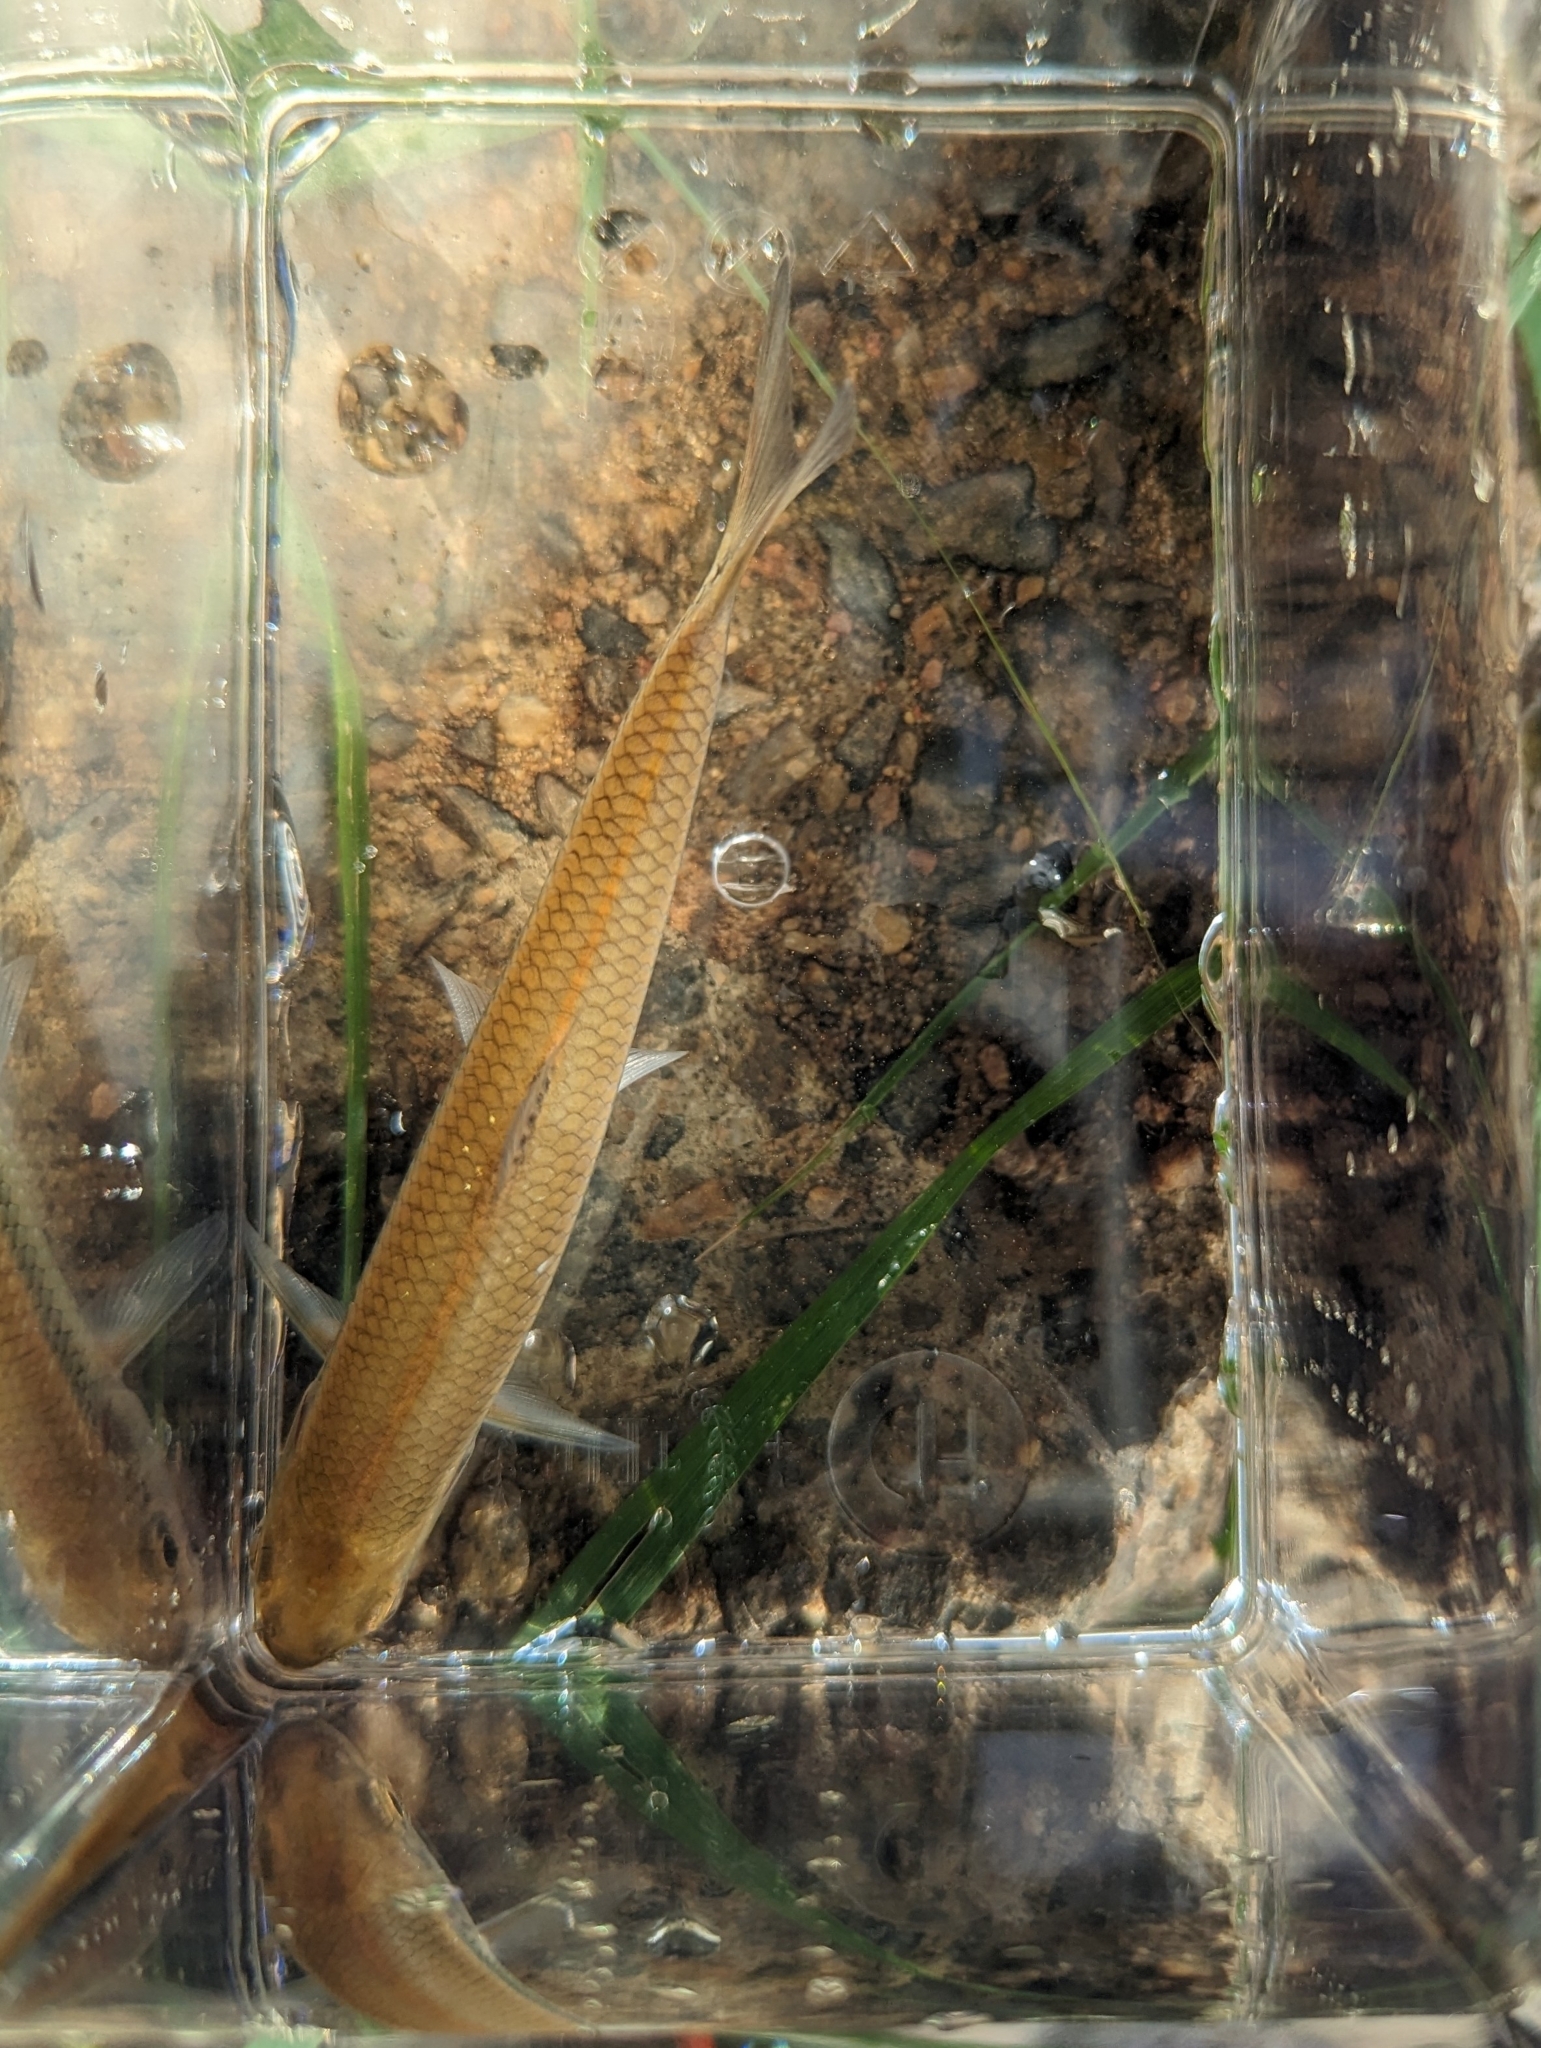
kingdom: Animalia
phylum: Chordata
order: Cypriniformes
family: Cyprinidae
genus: Semotilus
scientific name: Semotilus corporalis
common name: Fallfish
